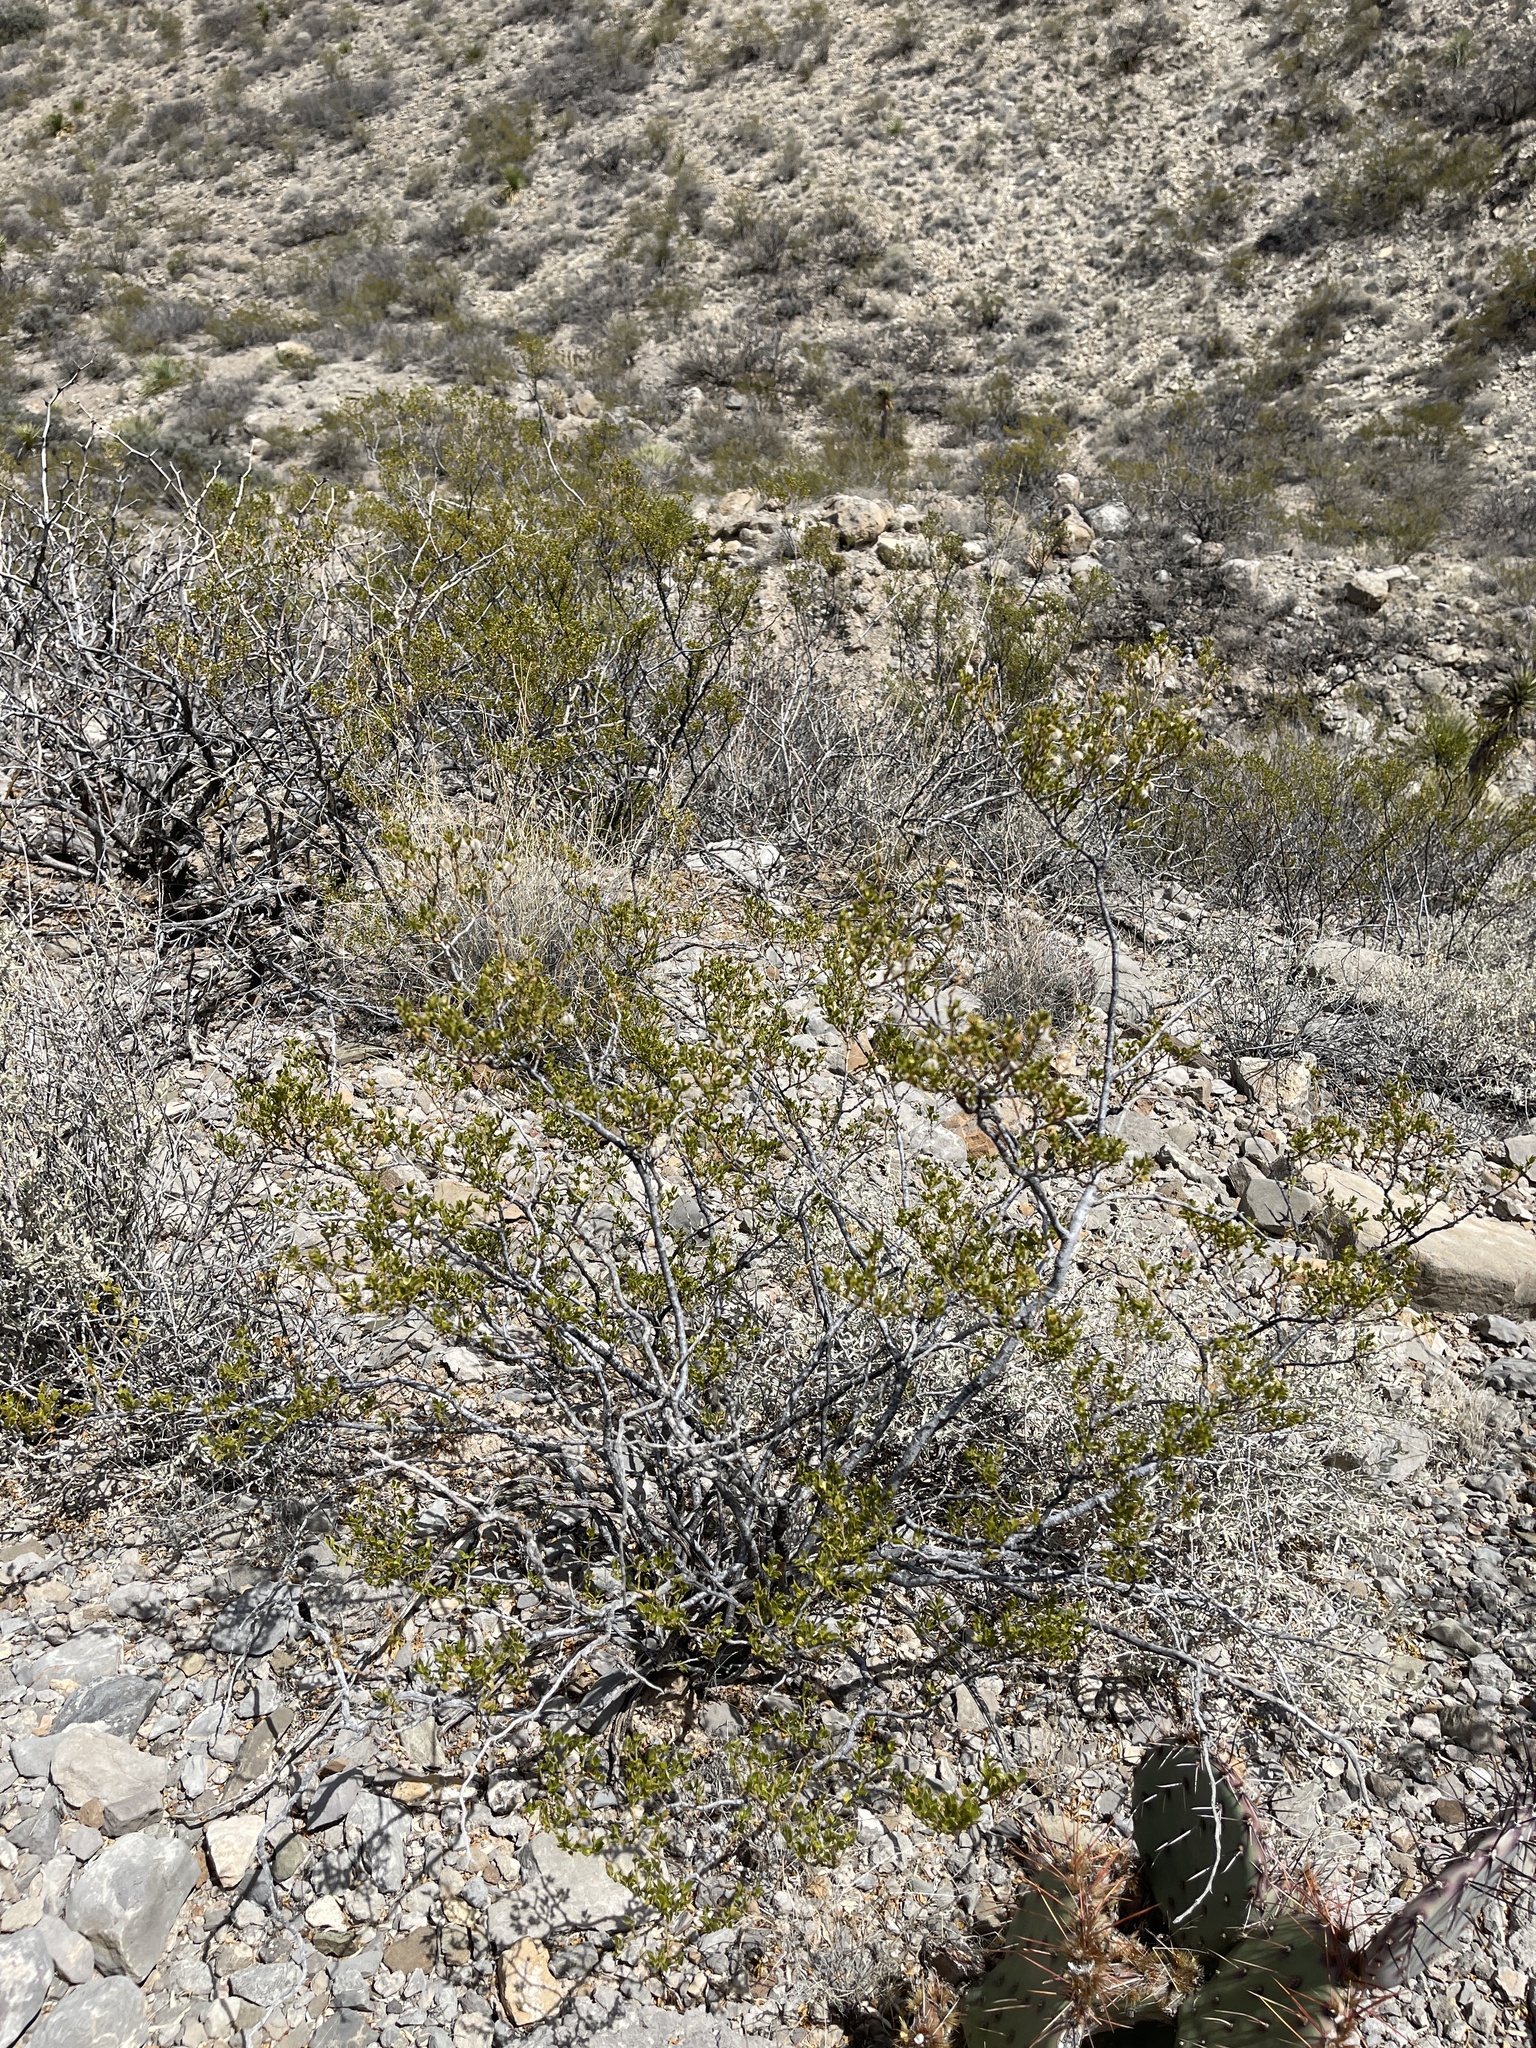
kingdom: Plantae
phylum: Tracheophyta
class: Magnoliopsida
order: Zygophyllales
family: Zygophyllaceae
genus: Larrea
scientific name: Larrea tridentata
